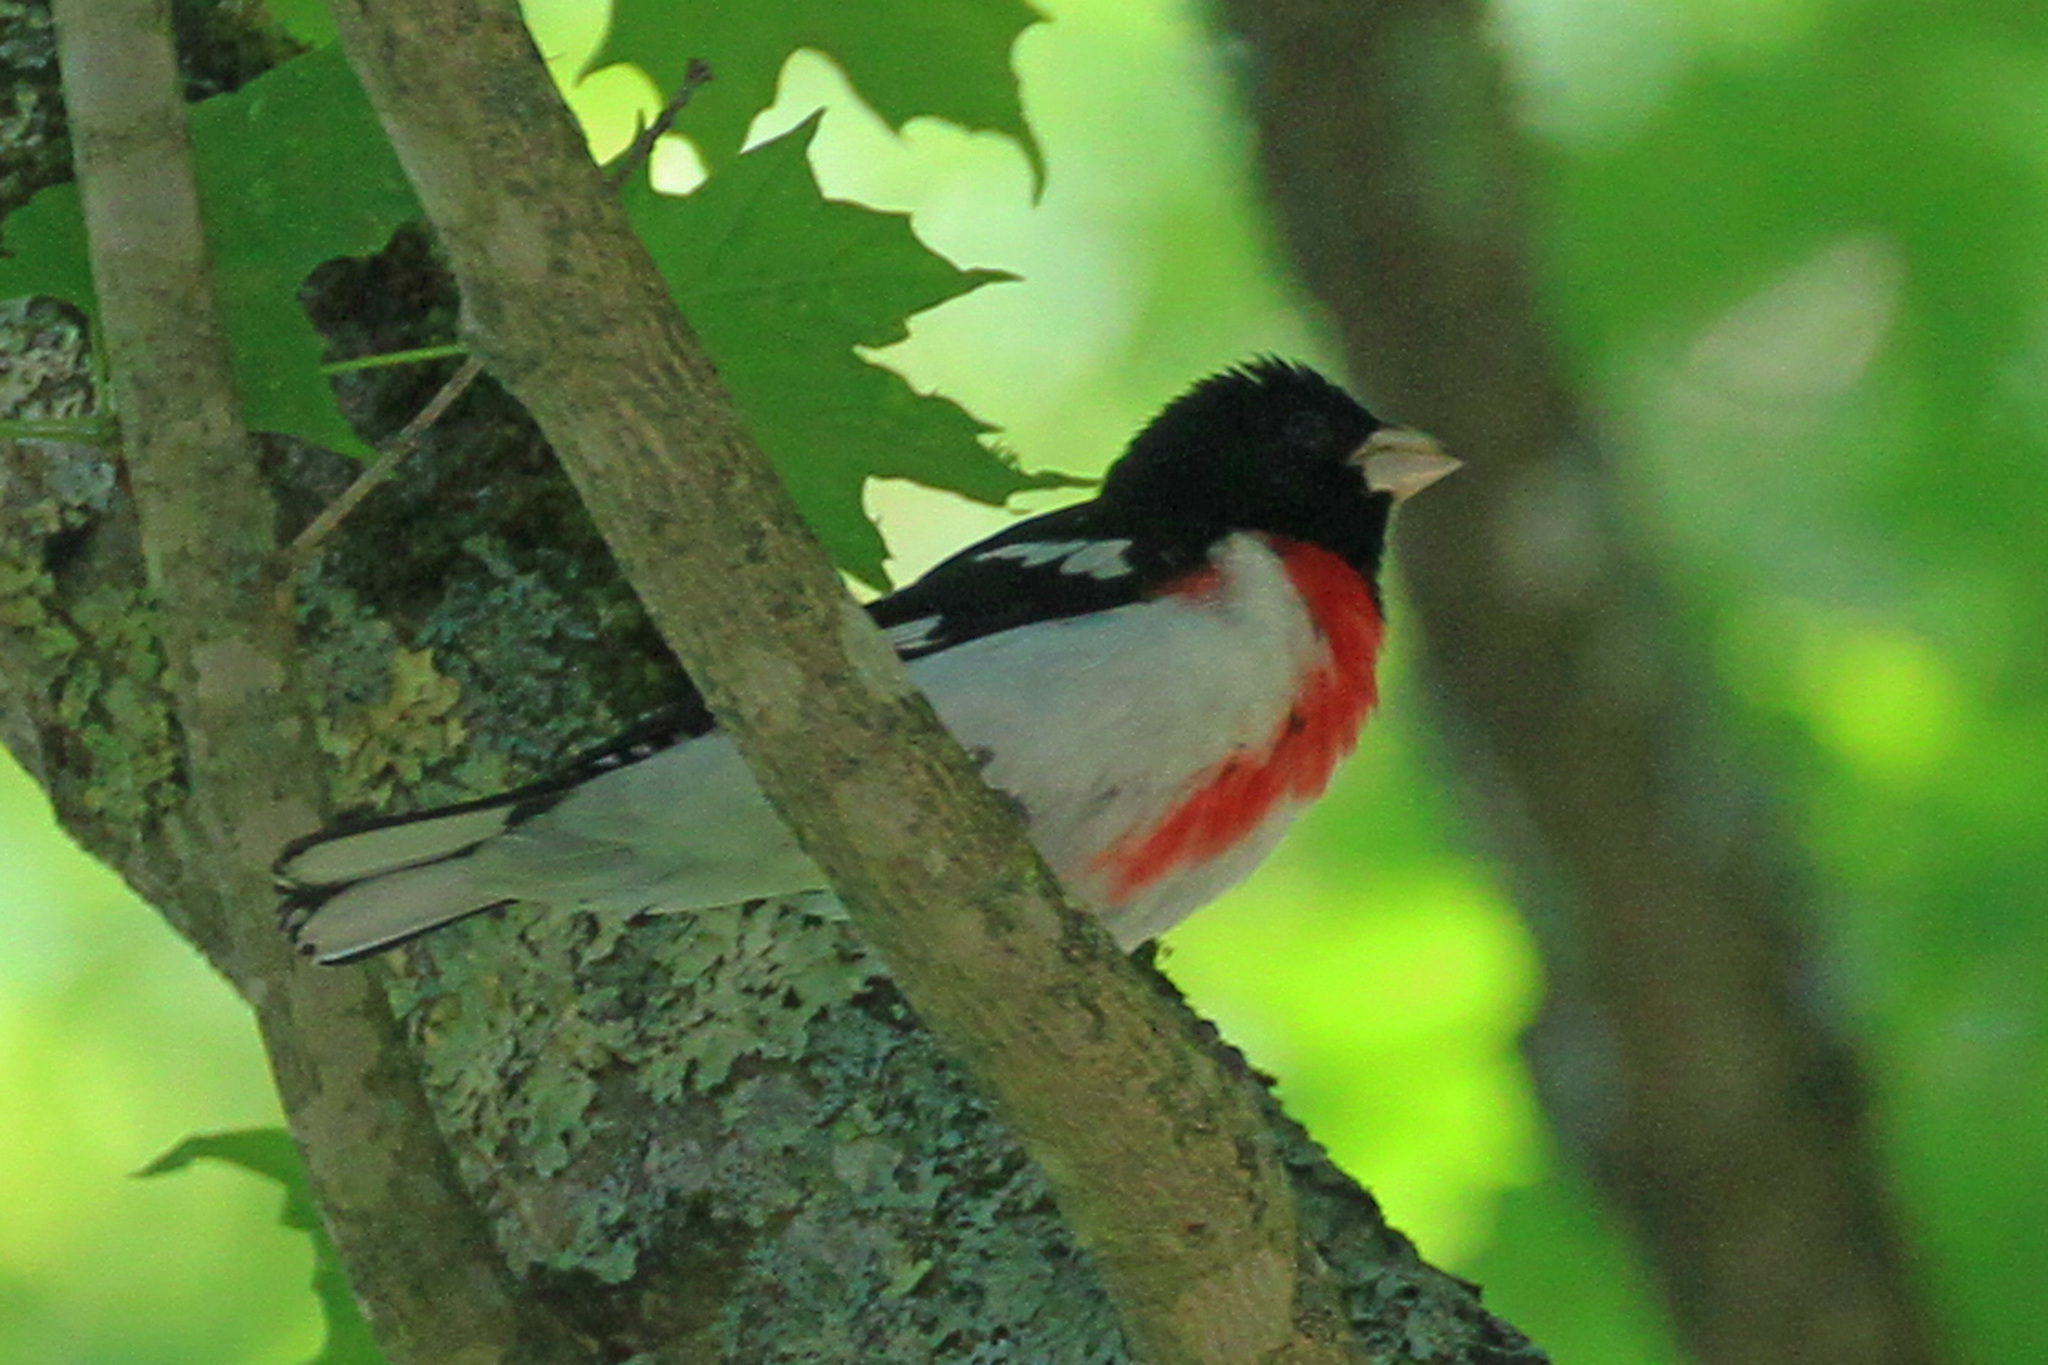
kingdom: Animalia
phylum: Chordata
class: Aves
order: Passeriformes
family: Cardinalidae
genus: Pheucticus
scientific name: Pheucticus ludovicianus
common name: Rose-breasted grosbeak
